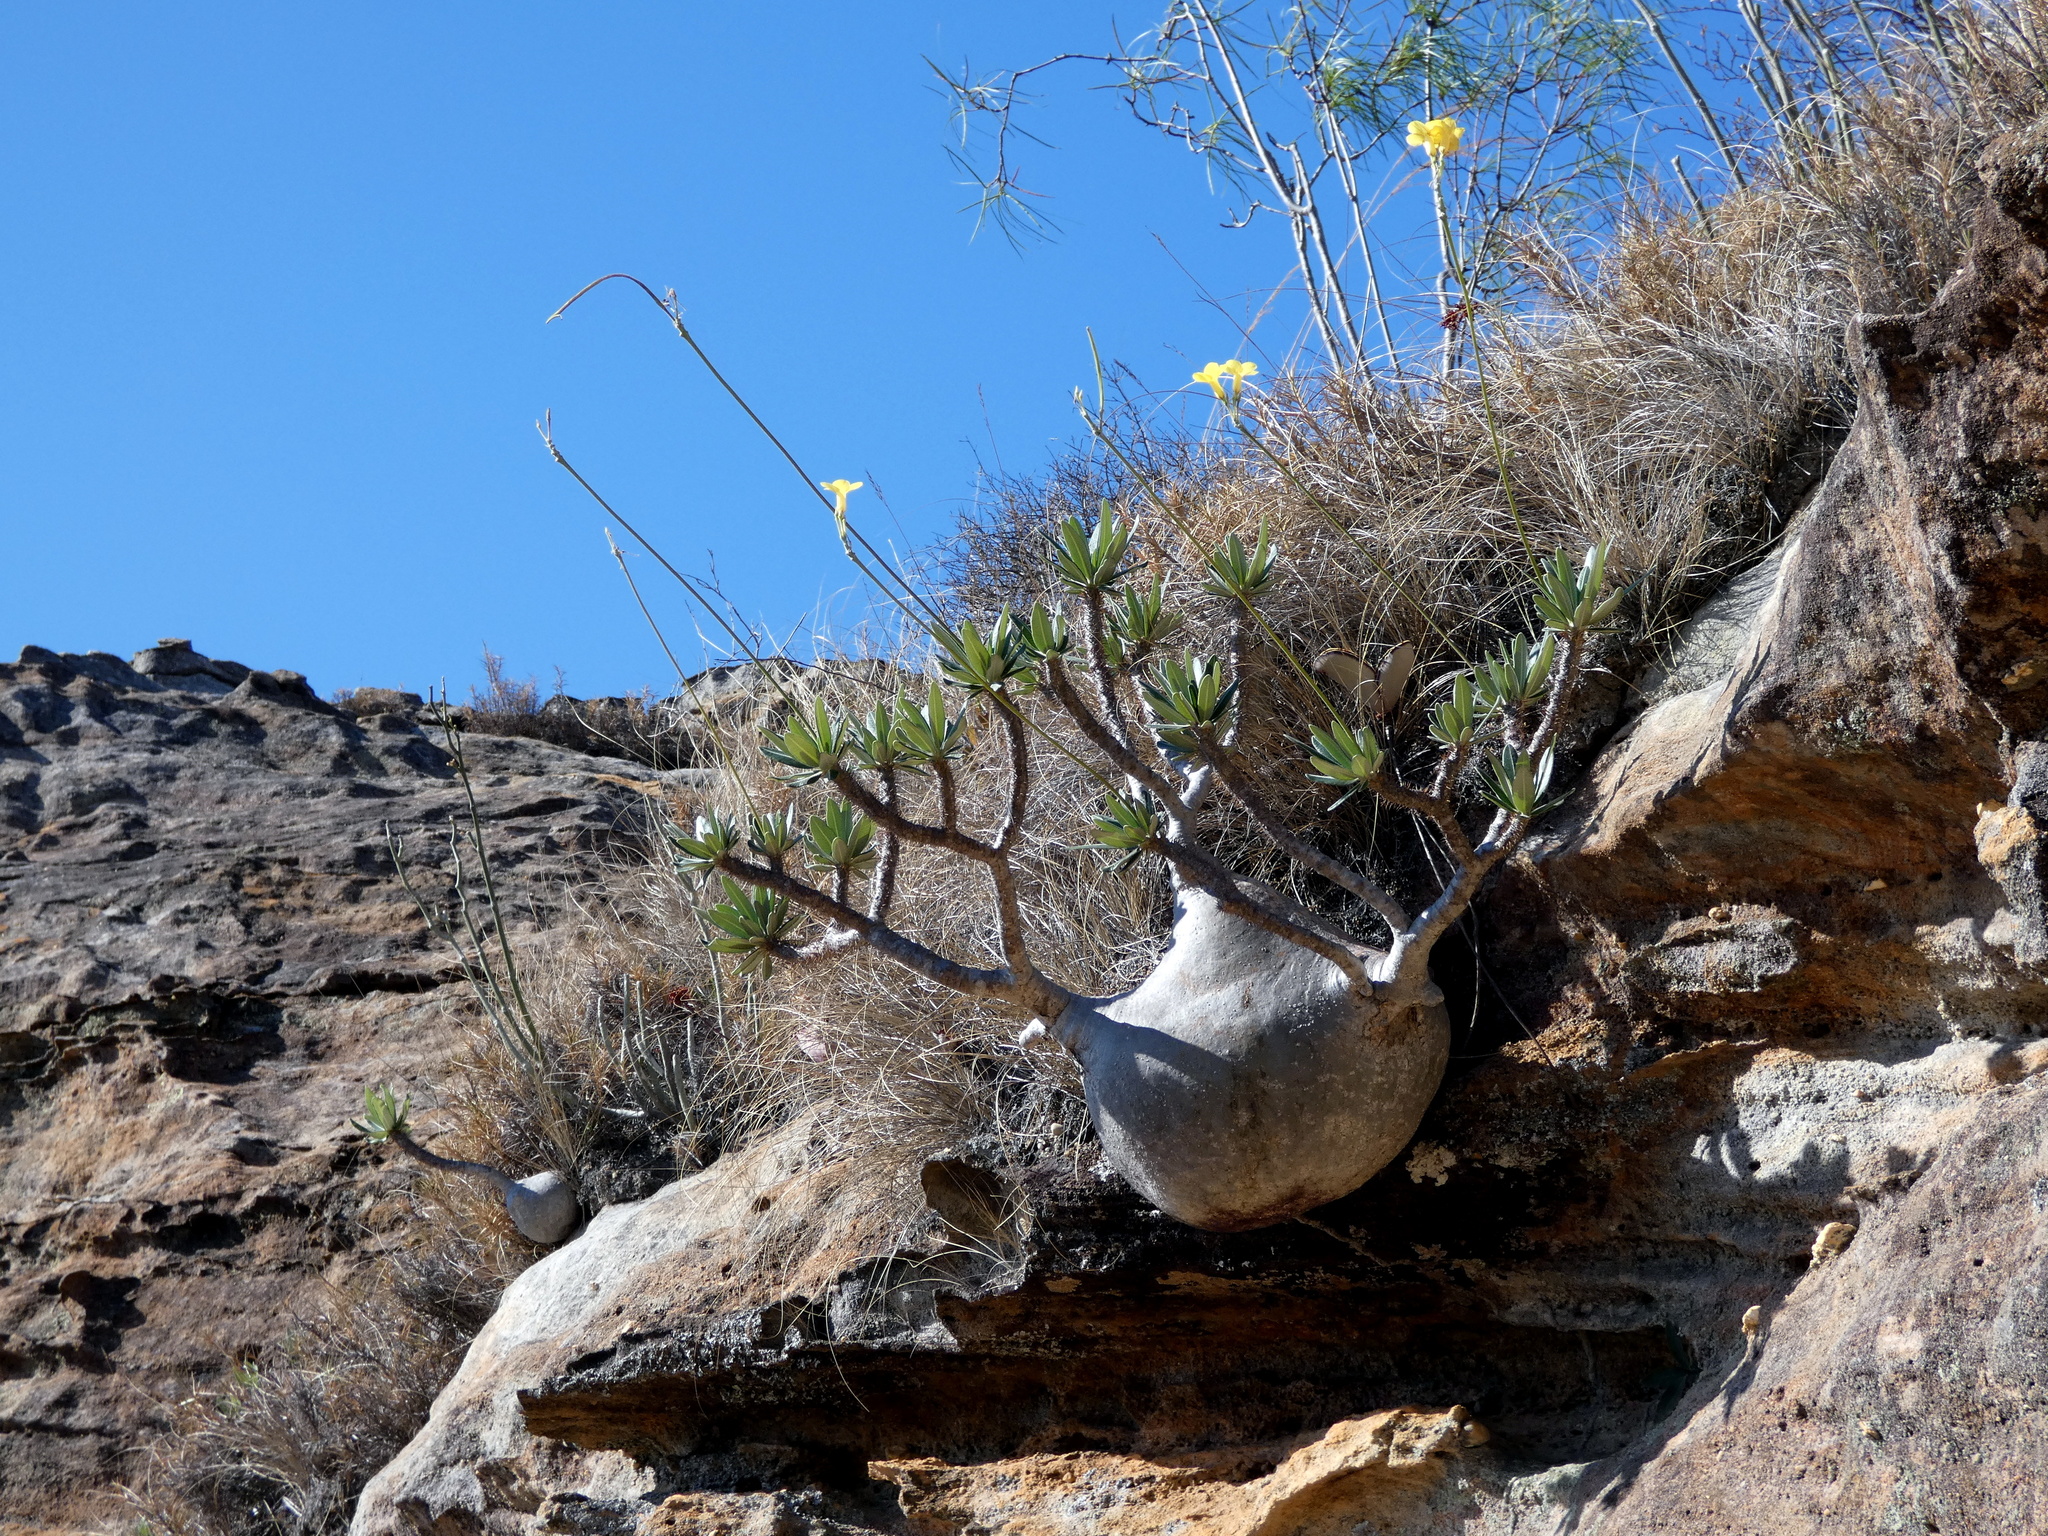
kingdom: Plantae
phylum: Tracheophyta
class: Magnoliopsida
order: Gentianales
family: Apocynaceae
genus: Pachypodium
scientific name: Pachypodium rosulatum
